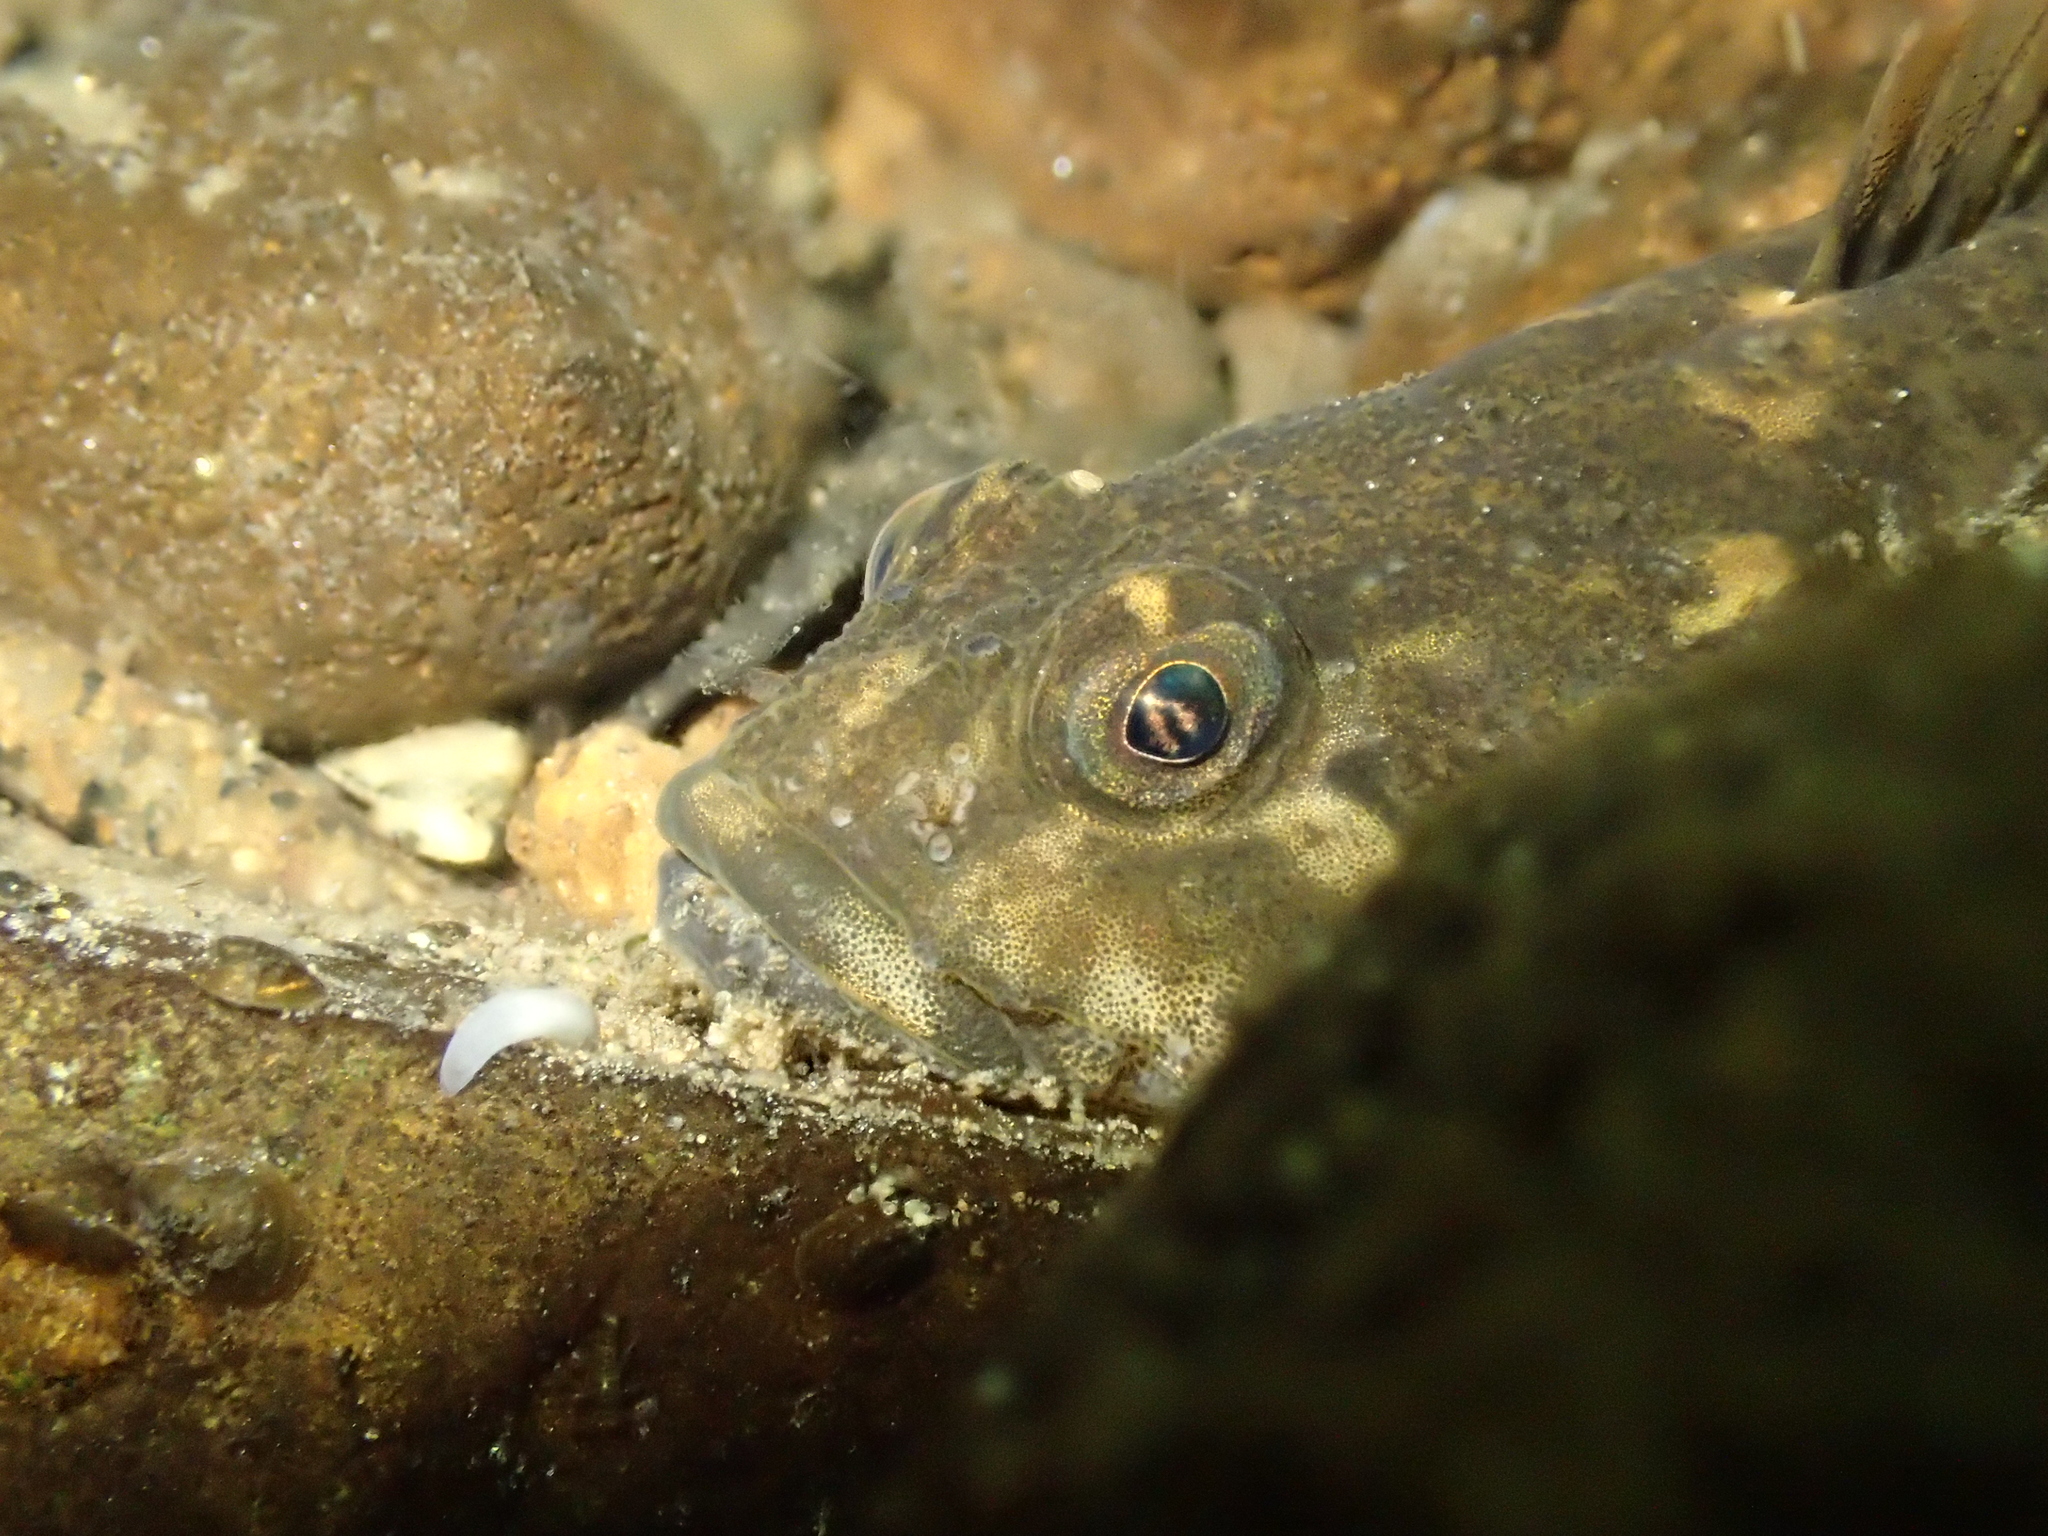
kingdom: Animalia
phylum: Chordata
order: Scorpaeniformes
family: Cottidae
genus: Cottus
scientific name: Cottus perifretum
